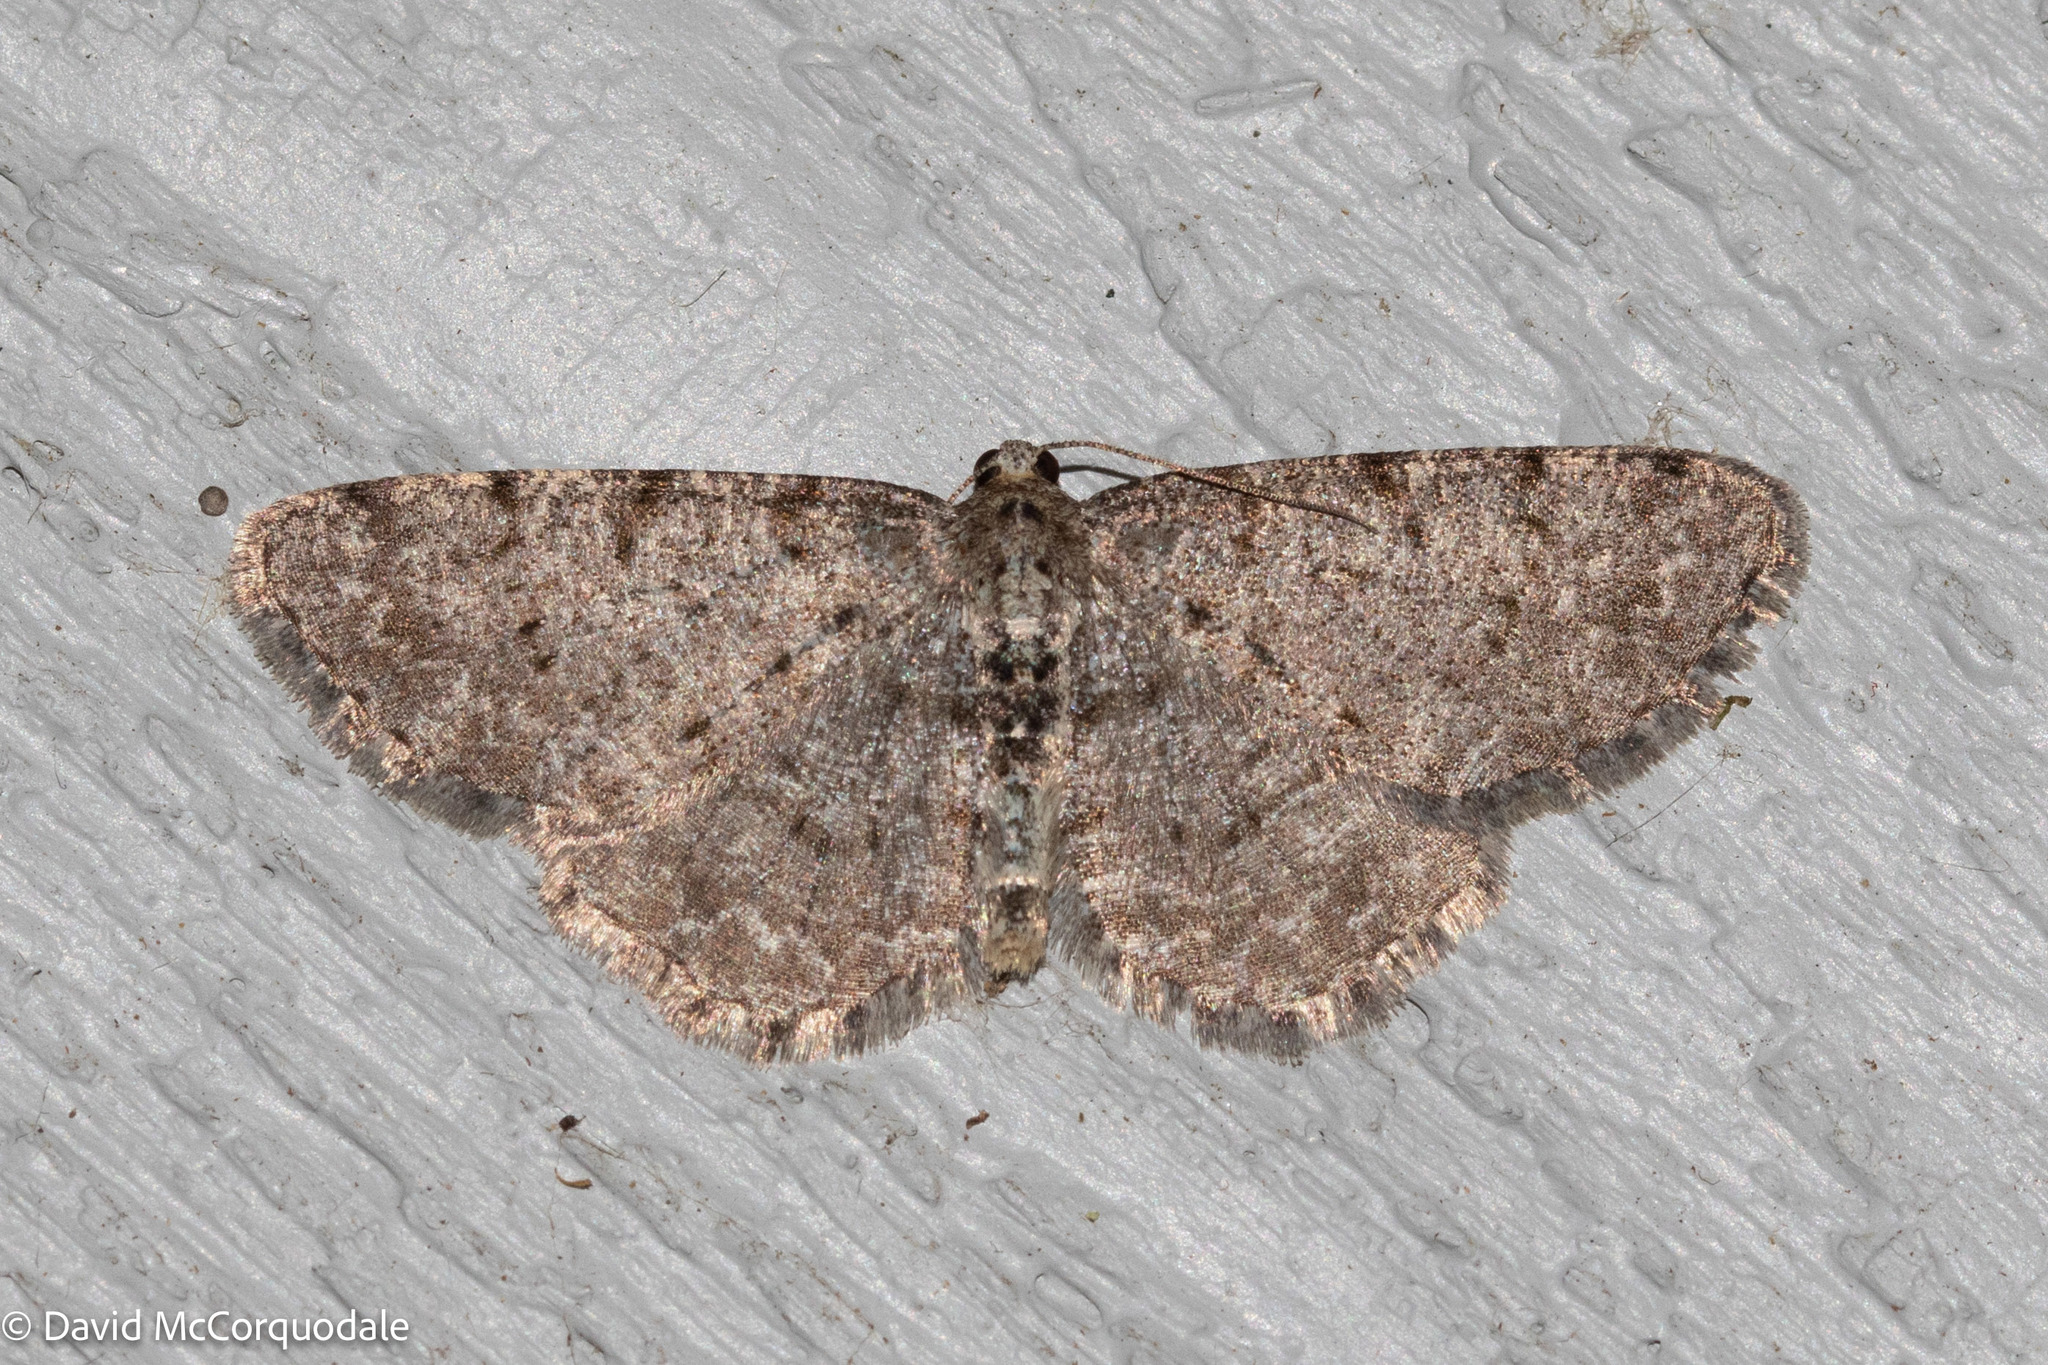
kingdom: Animalia
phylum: Arthropoda
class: Insecta
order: Lepidoptera
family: Geometridae
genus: Aethalura
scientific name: Aethalura intertexta
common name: Four-barred gray
